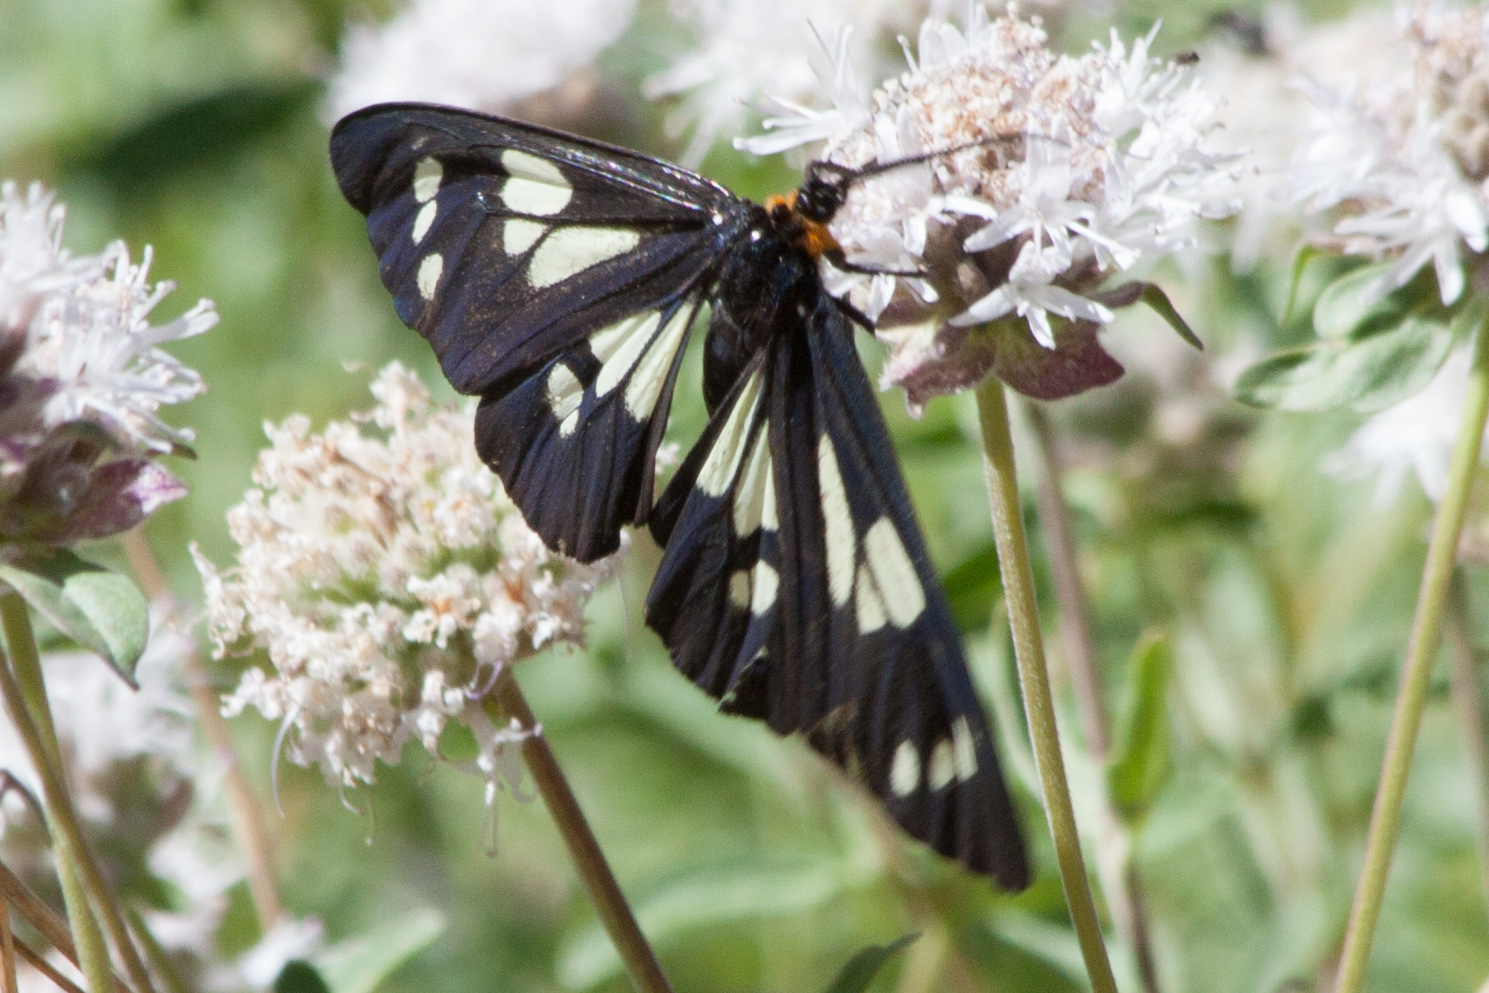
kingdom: Animalia
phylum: Arthropoda
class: Insecta
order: Lepidoptera
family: Erebidae
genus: Gnophaela
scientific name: Gnophaela latipennis
